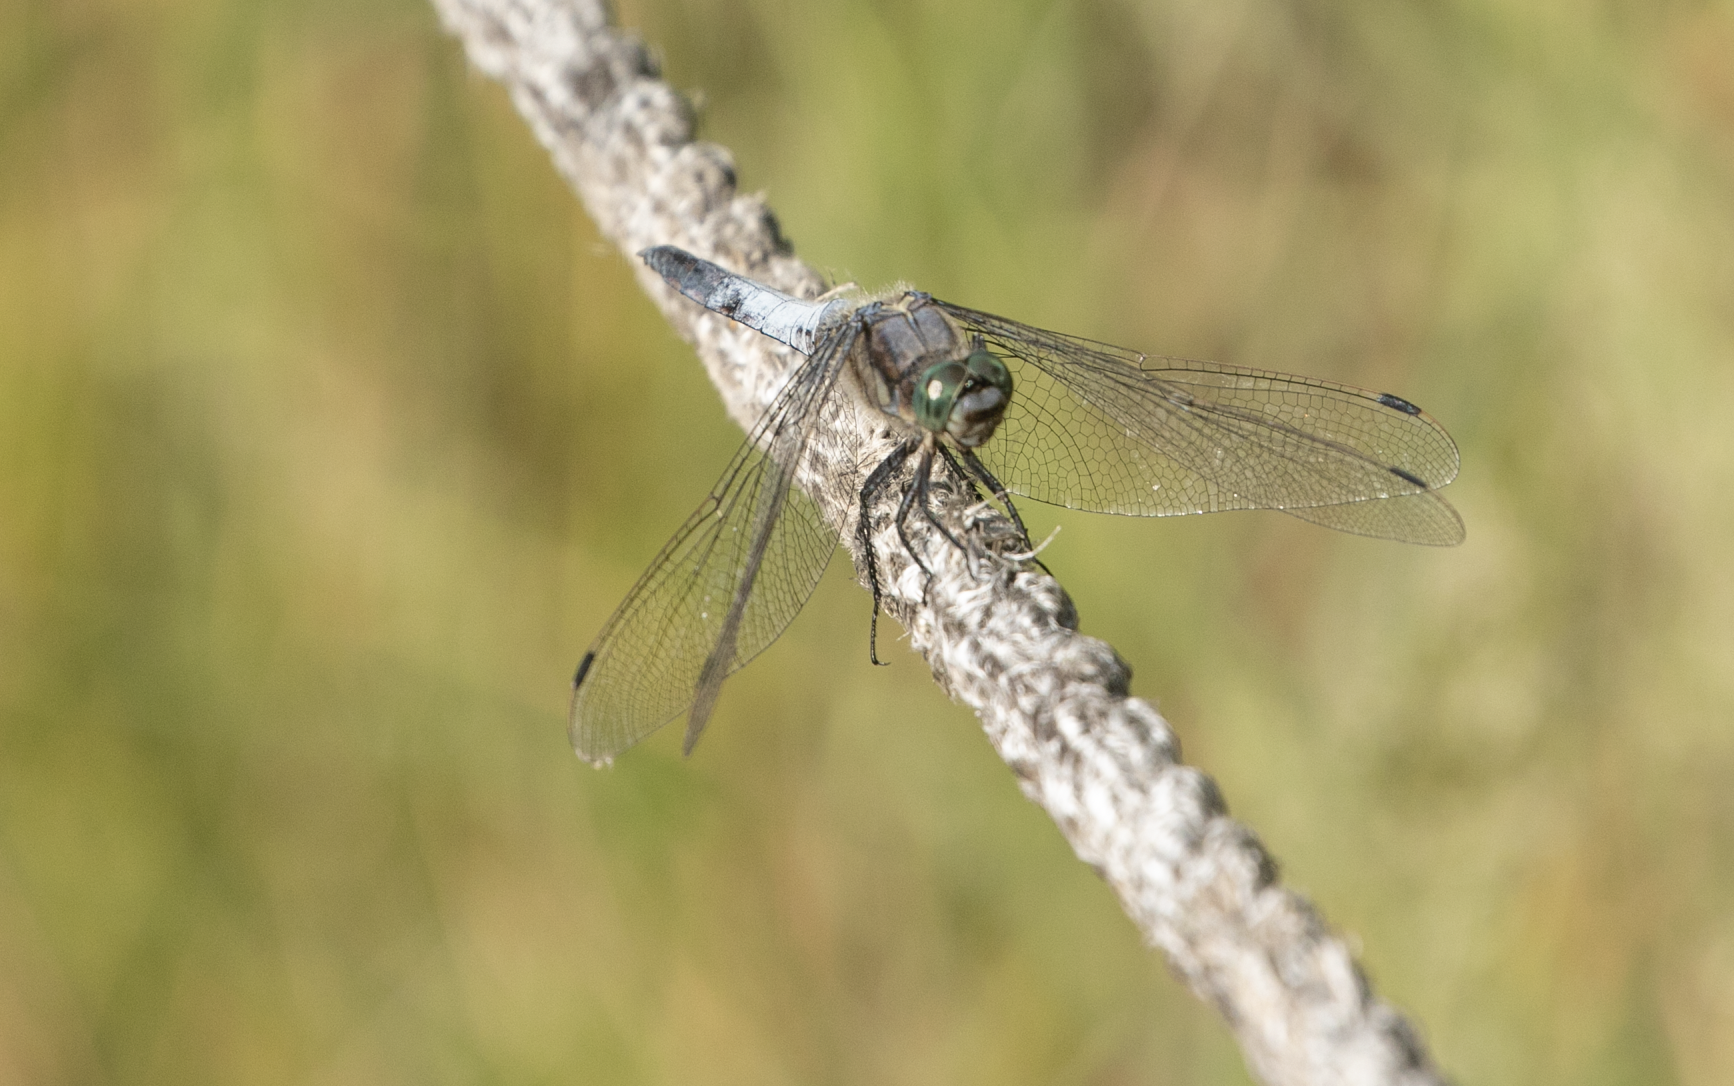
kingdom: Animalia
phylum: Arthropoda
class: Insecta
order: Odonata
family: Libellulidae
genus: Orthetrum
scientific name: Orthetrum cancellatum
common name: Black-tailed skimmer
